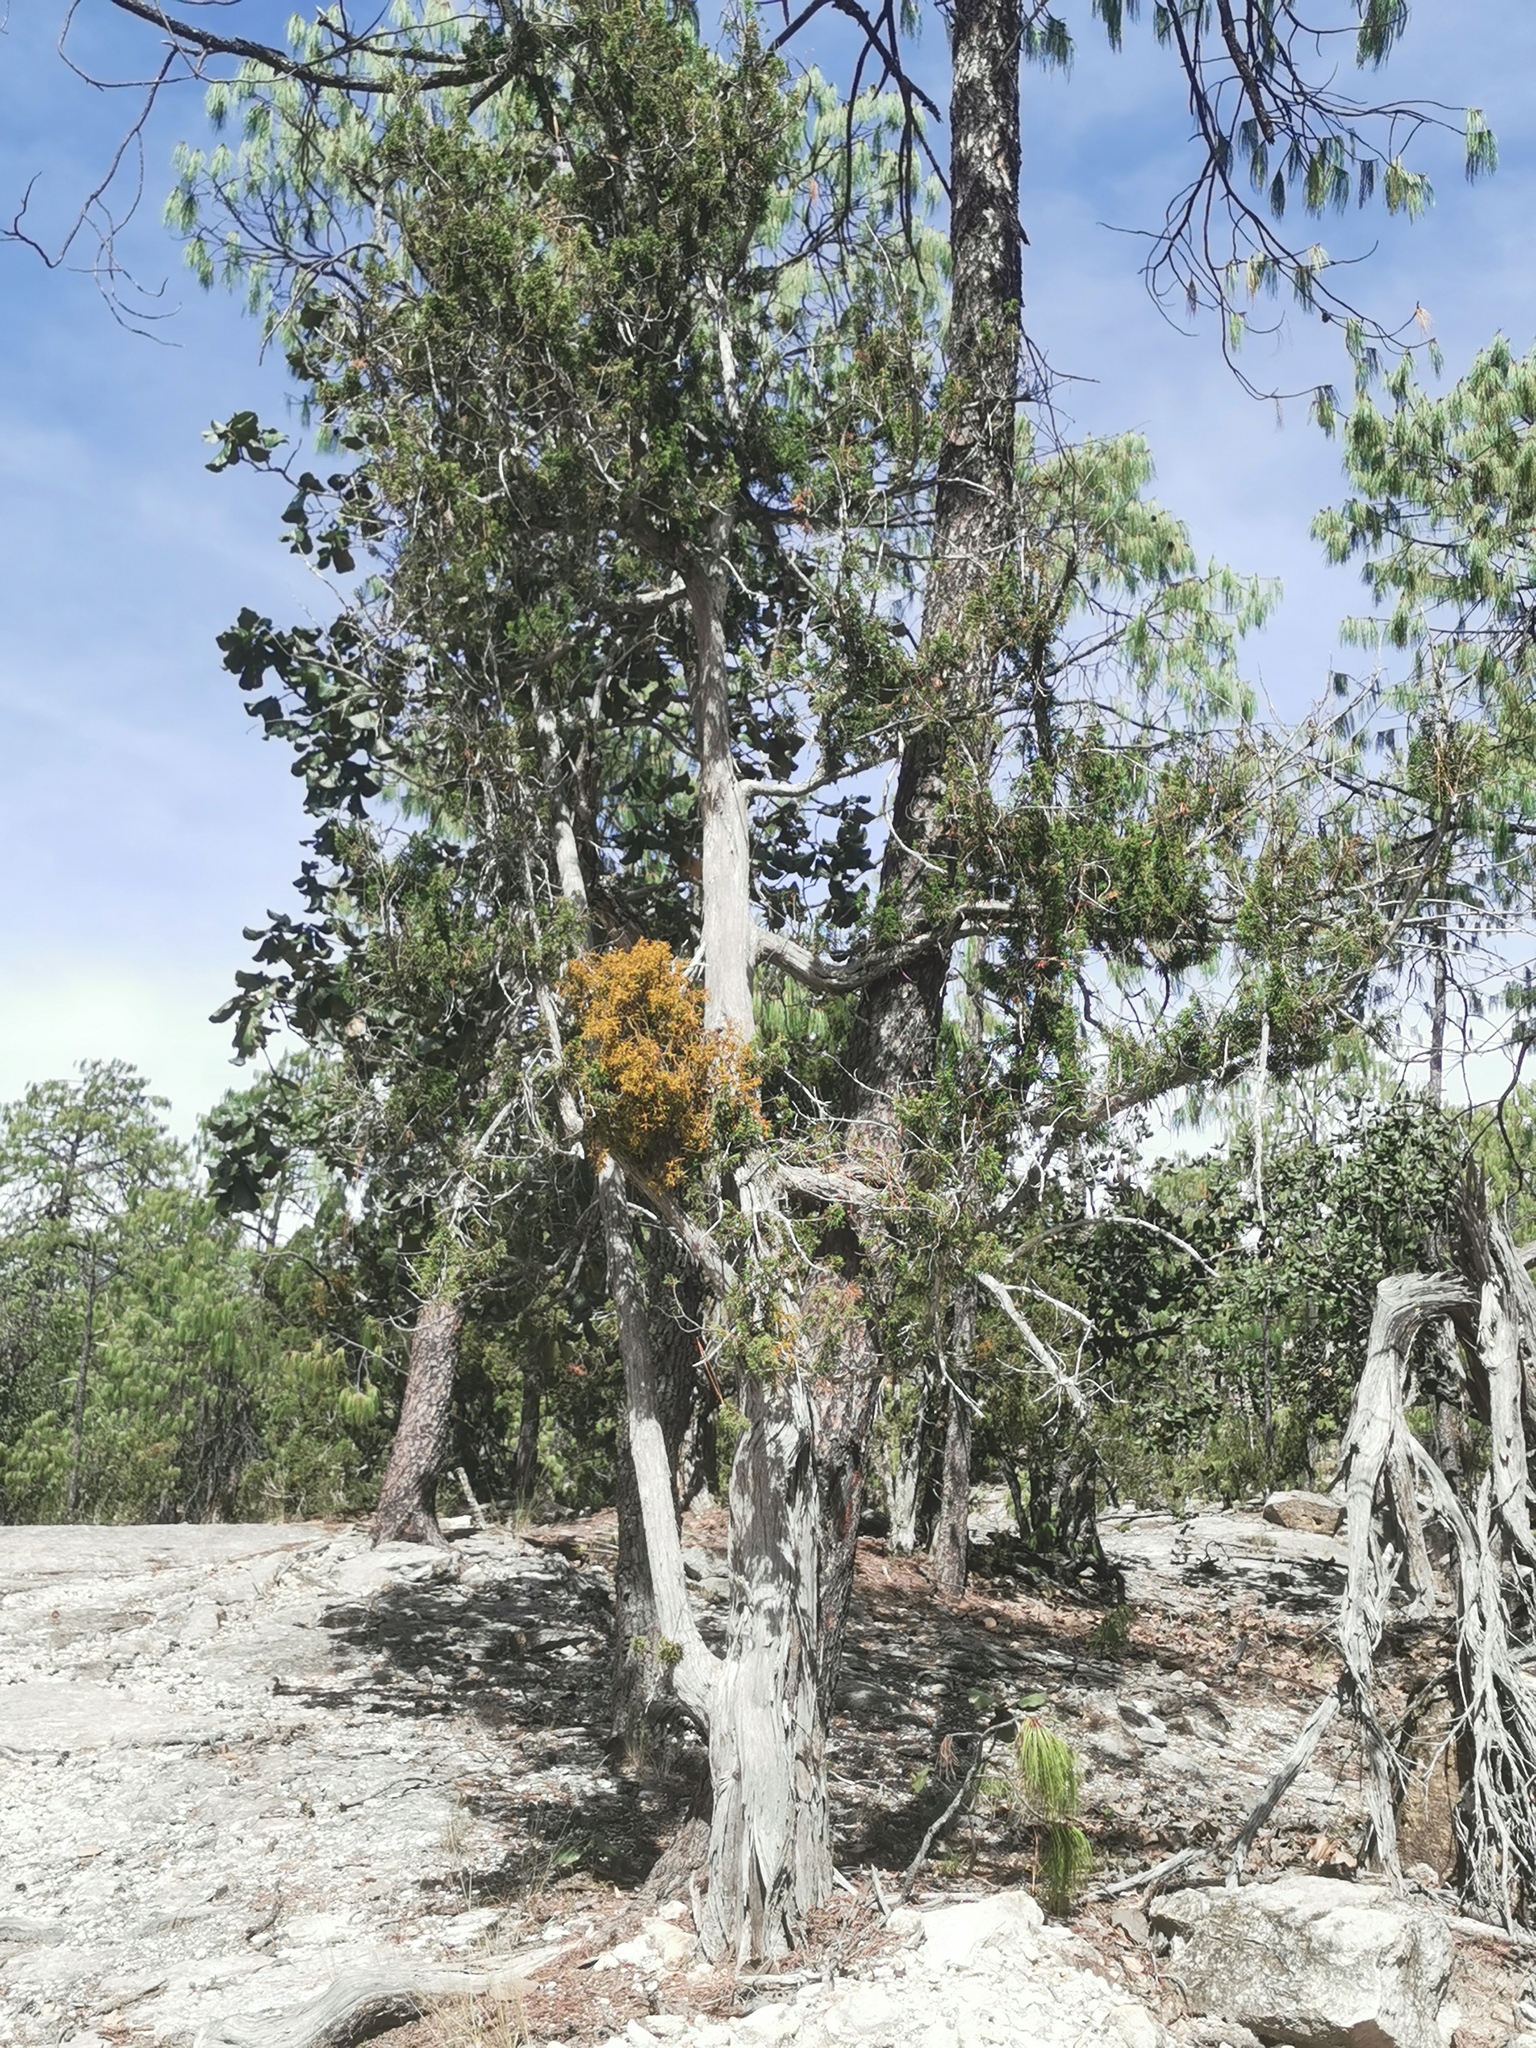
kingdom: Plantae
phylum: Tracheophyta
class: Magnoliopsida
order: Santalales
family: Viscaceae
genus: Phoradendron
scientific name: Phoradendron bolleanum
